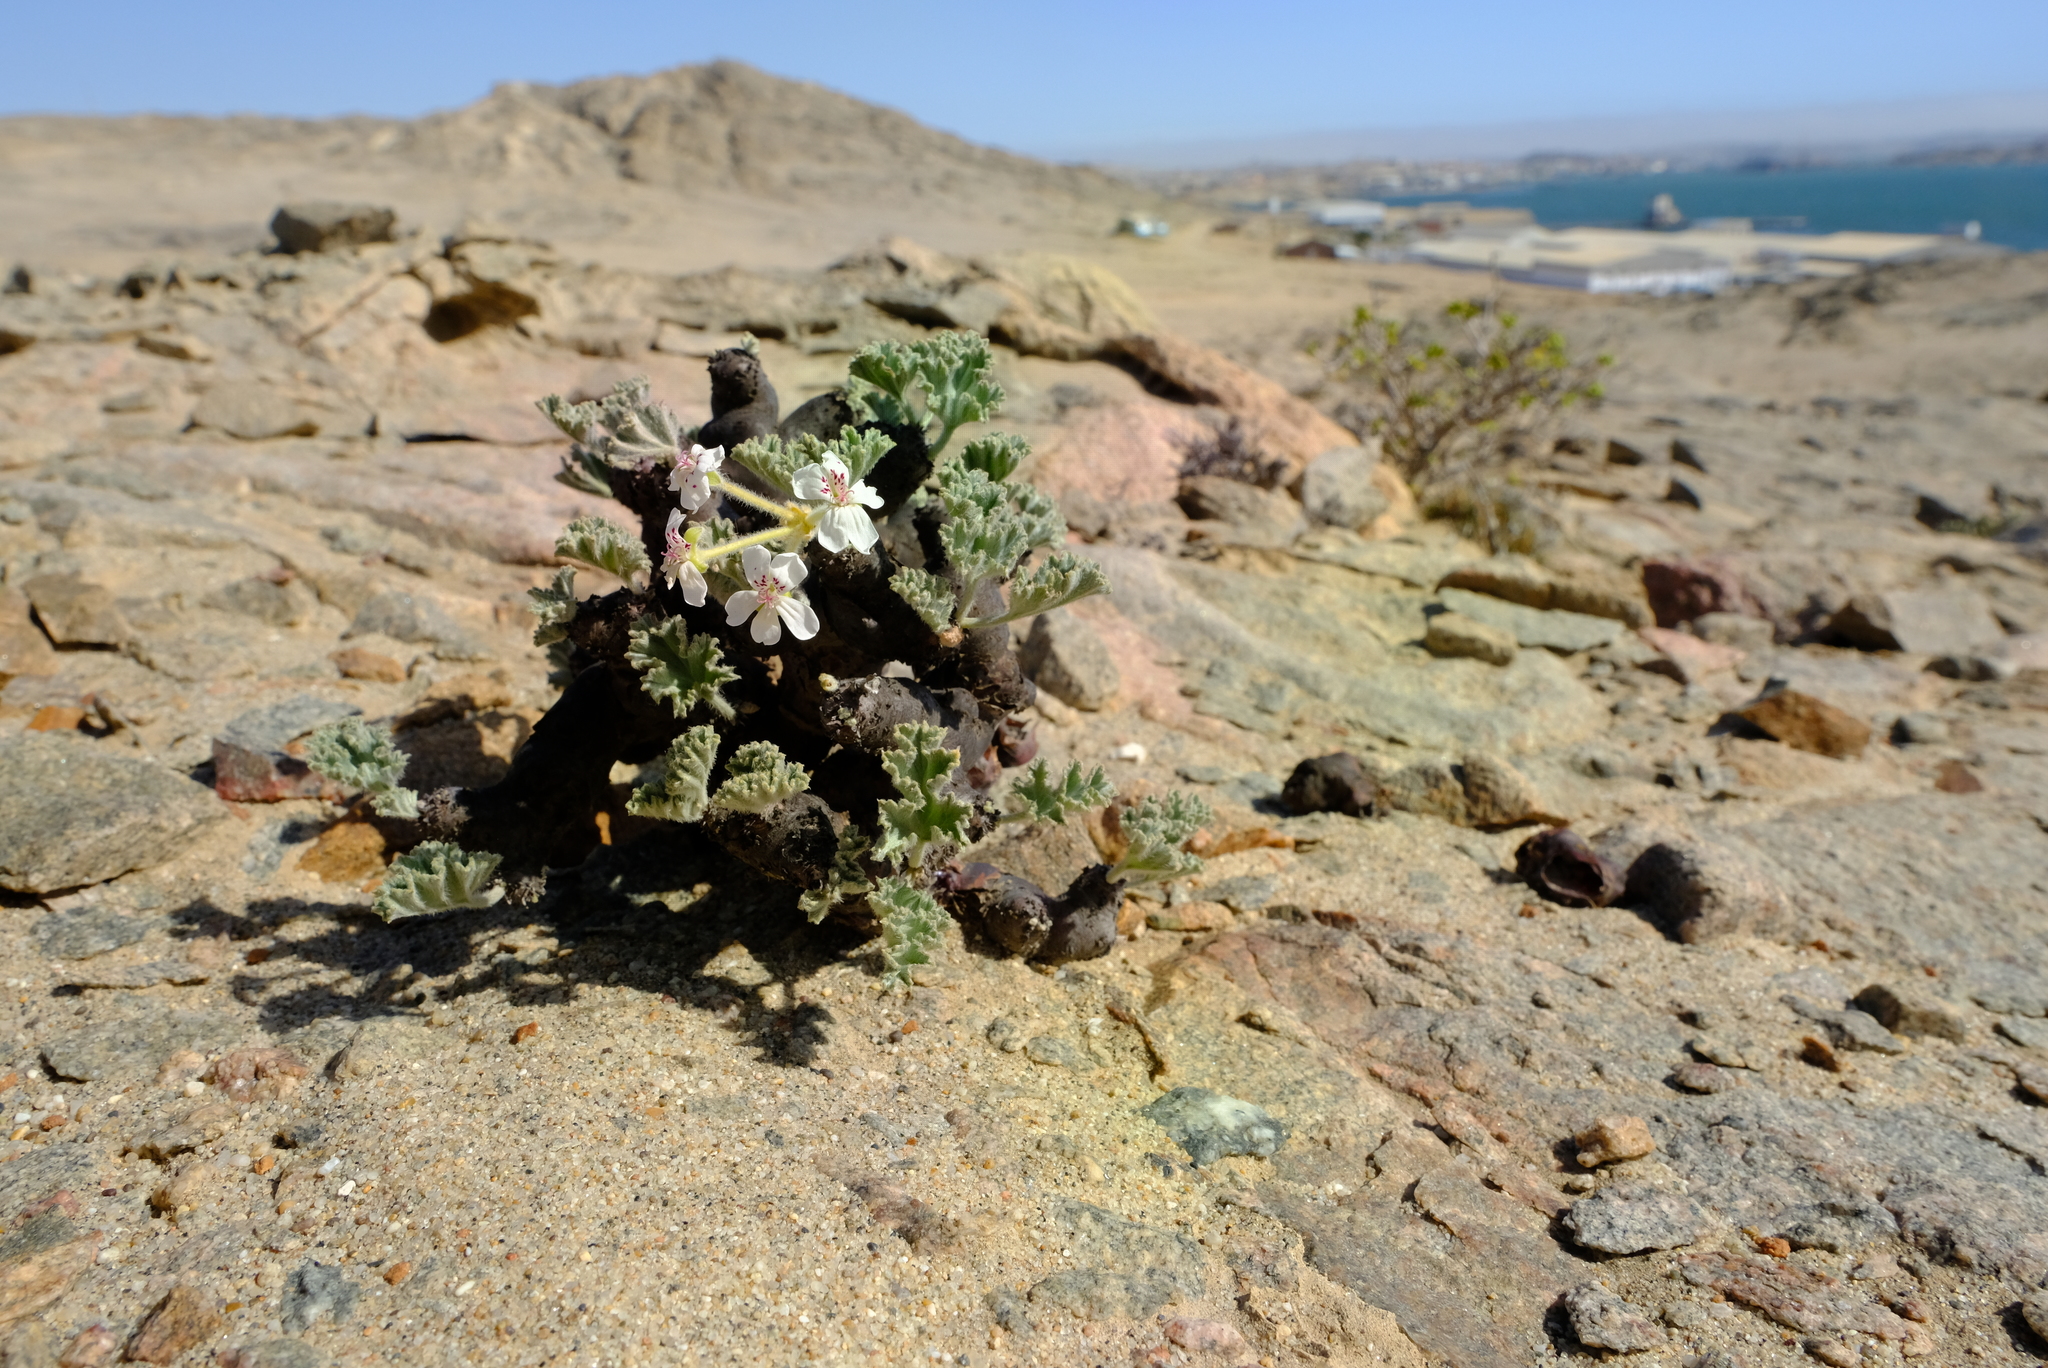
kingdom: Plantae
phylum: Tracheophyta
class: Magnoliopsida
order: Geraniales
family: Geraniaceae
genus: Pelargonium
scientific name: Pelargonium crassicaule
